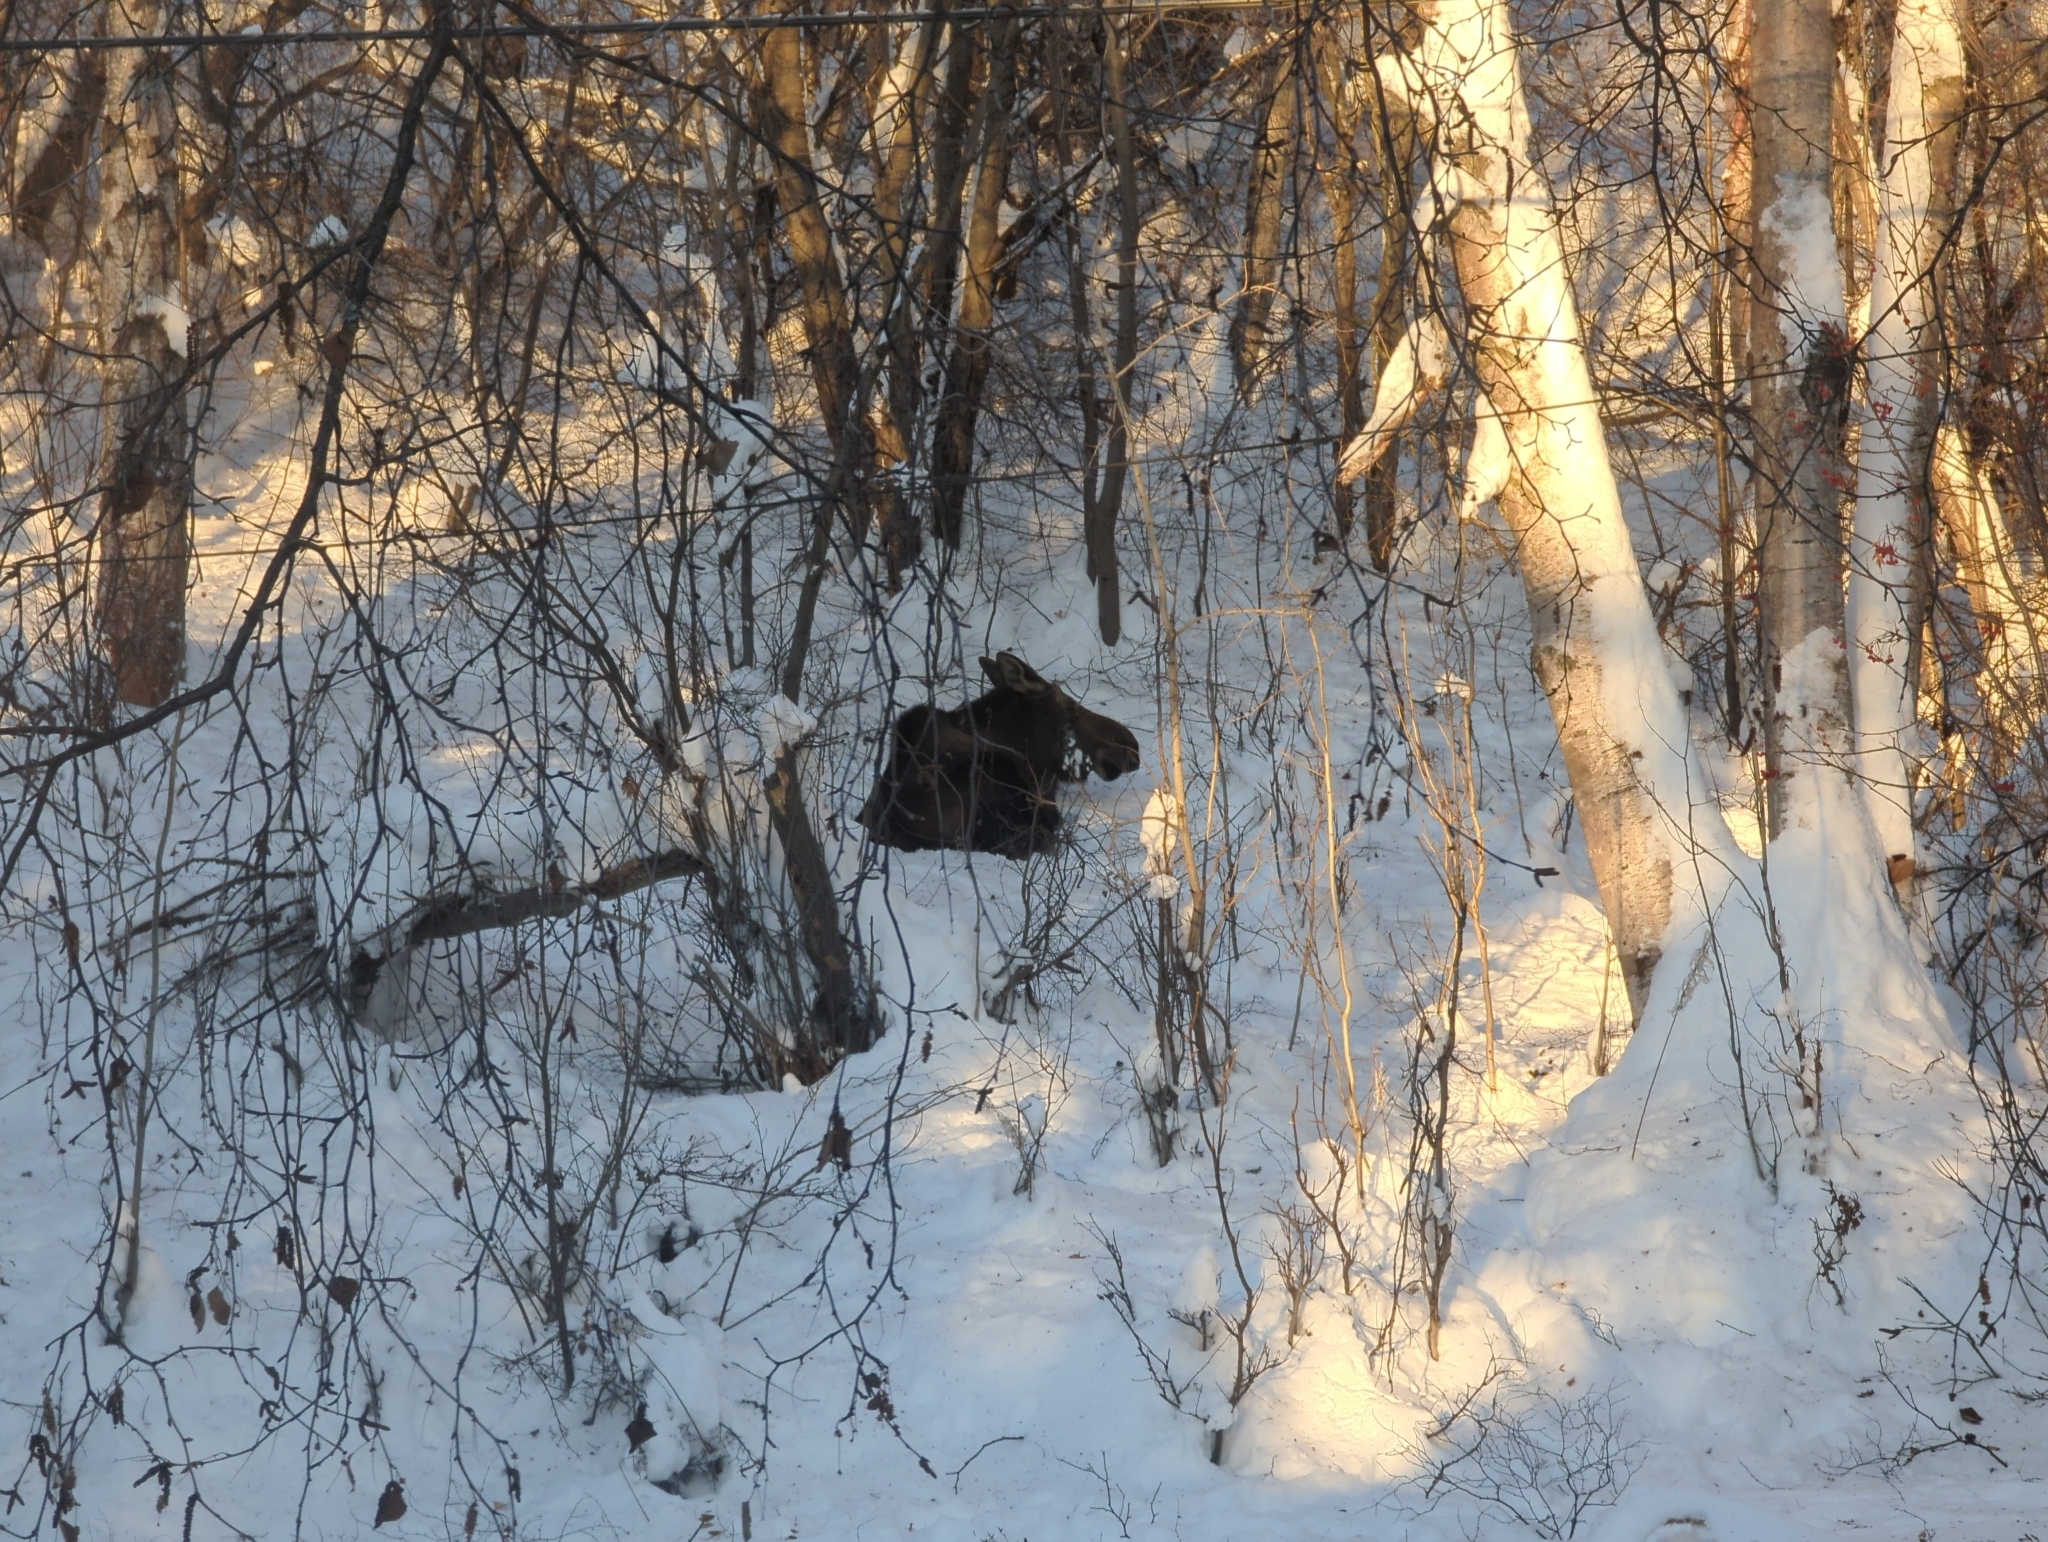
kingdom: Animalia
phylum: Chordata
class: Mammalia
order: Artiodactyla
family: Cervidae
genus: Alces
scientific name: Alces alces
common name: Moose
